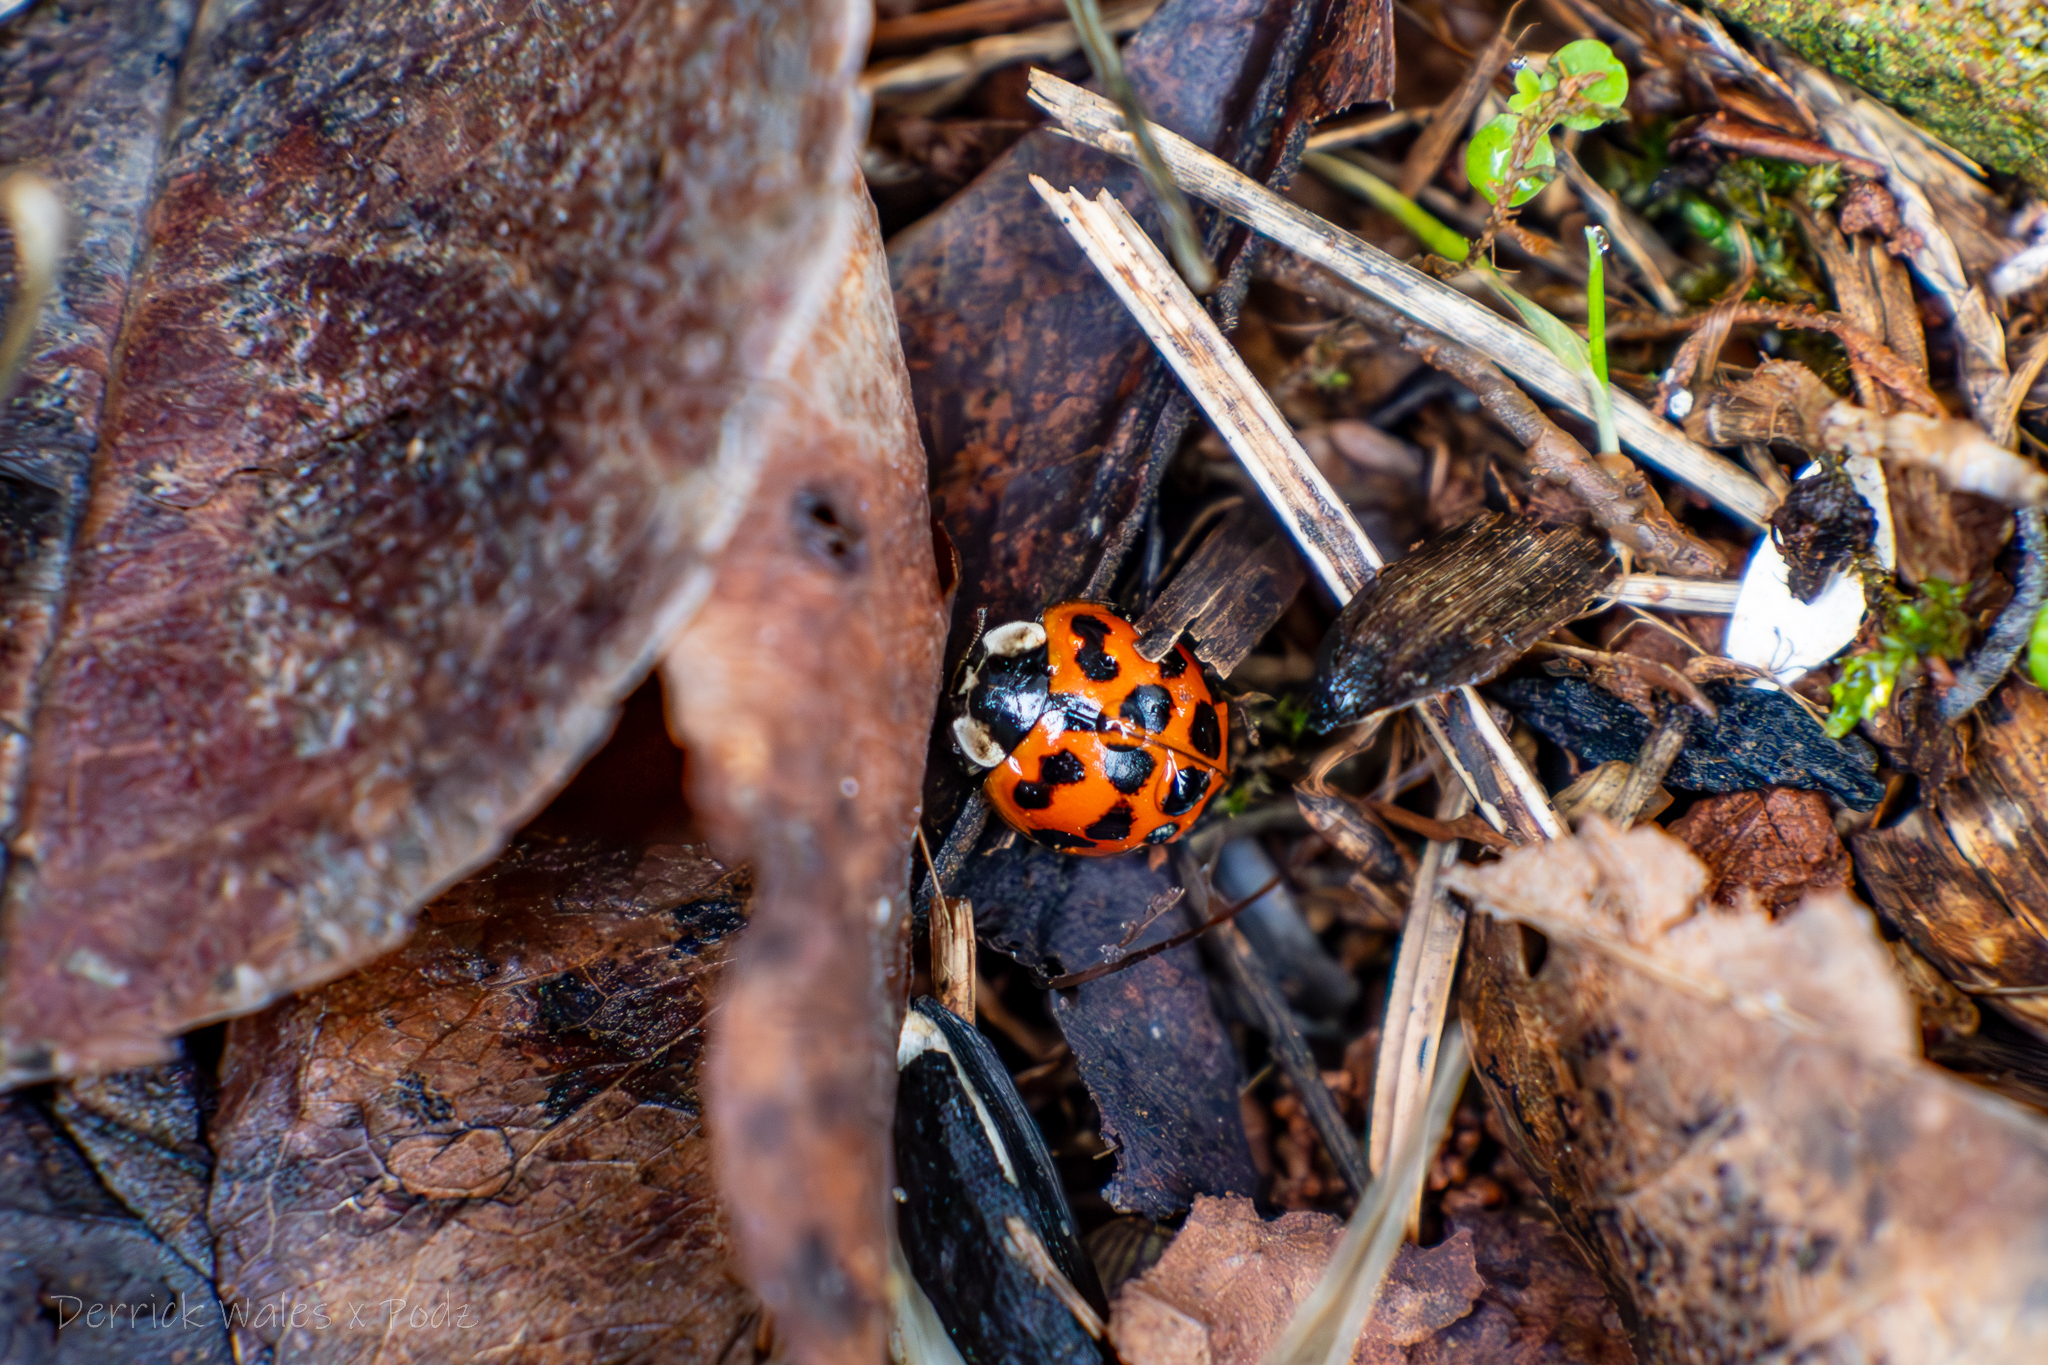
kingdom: Animalia
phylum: Arthropoda
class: Insecta
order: Coleoptera
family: Coccinellidae
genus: Harmonia
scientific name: Harmonia axyridis
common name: Harlequin ladybird
